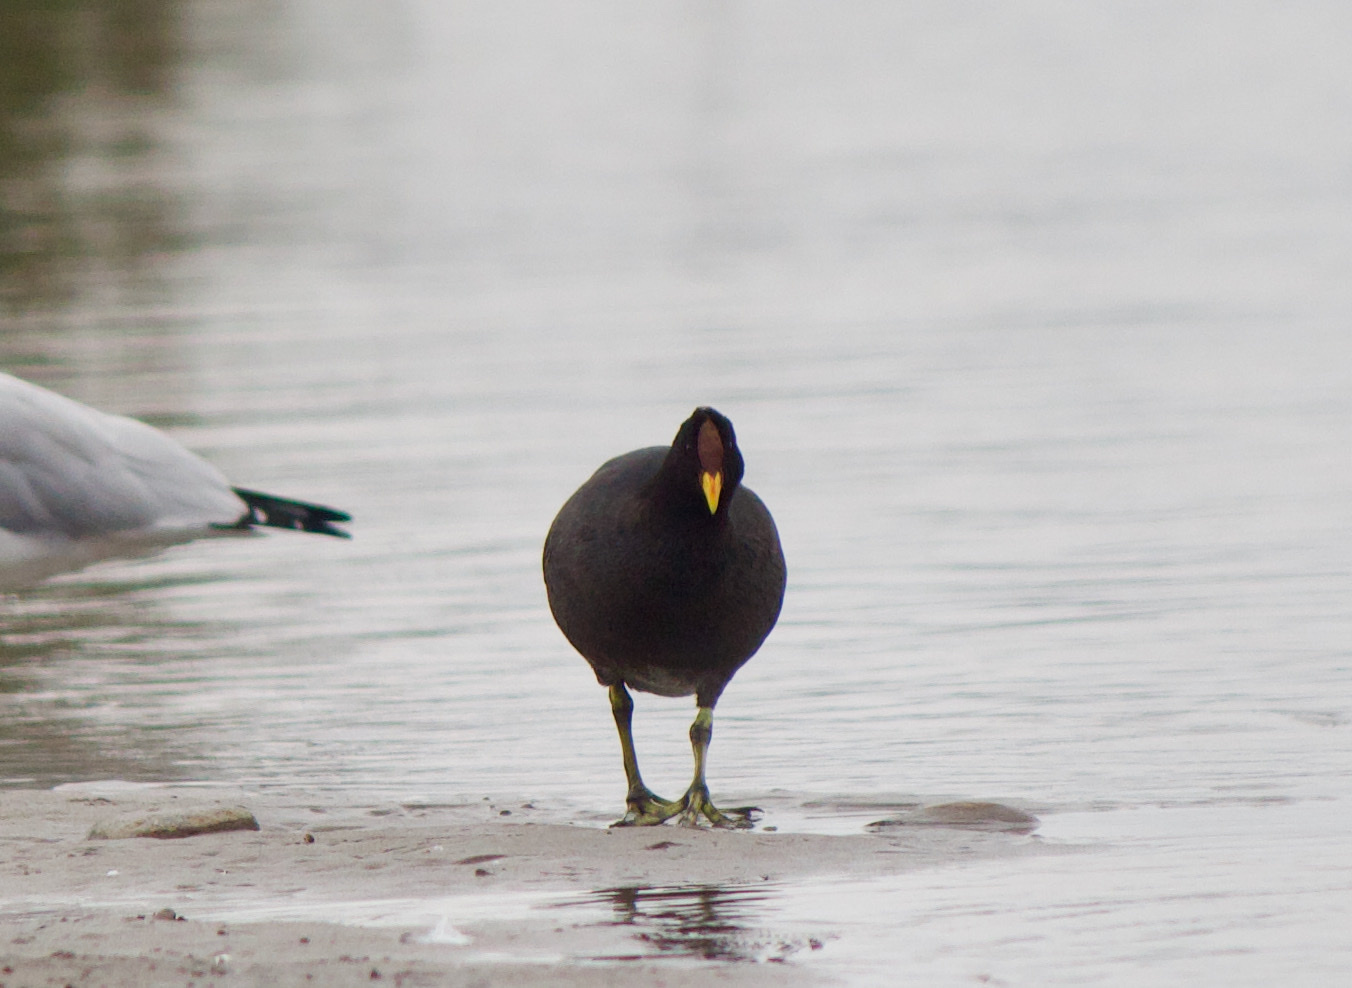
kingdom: Animalia
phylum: Chordata
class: Aves
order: Gruiformes
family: Rallidae
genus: Fulica
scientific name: Fulica rufifrons
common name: Red-fronted coot
